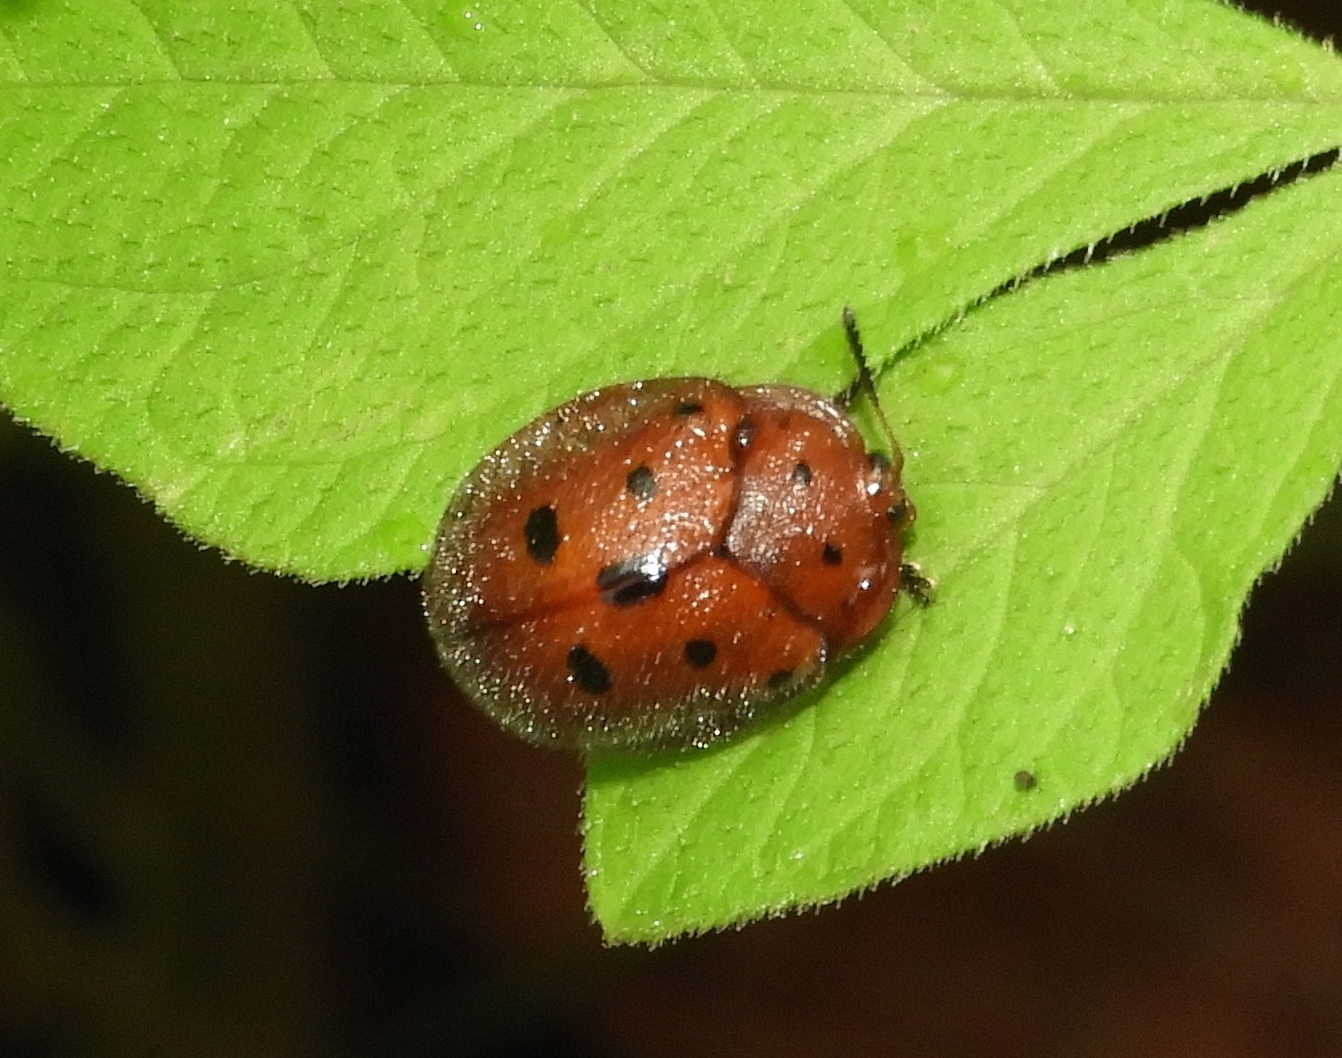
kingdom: Animalia
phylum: Arthropoda
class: Insecta
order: Coleoptera
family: Chrysomelidae
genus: Chelymorpha
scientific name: Chelymorpha
